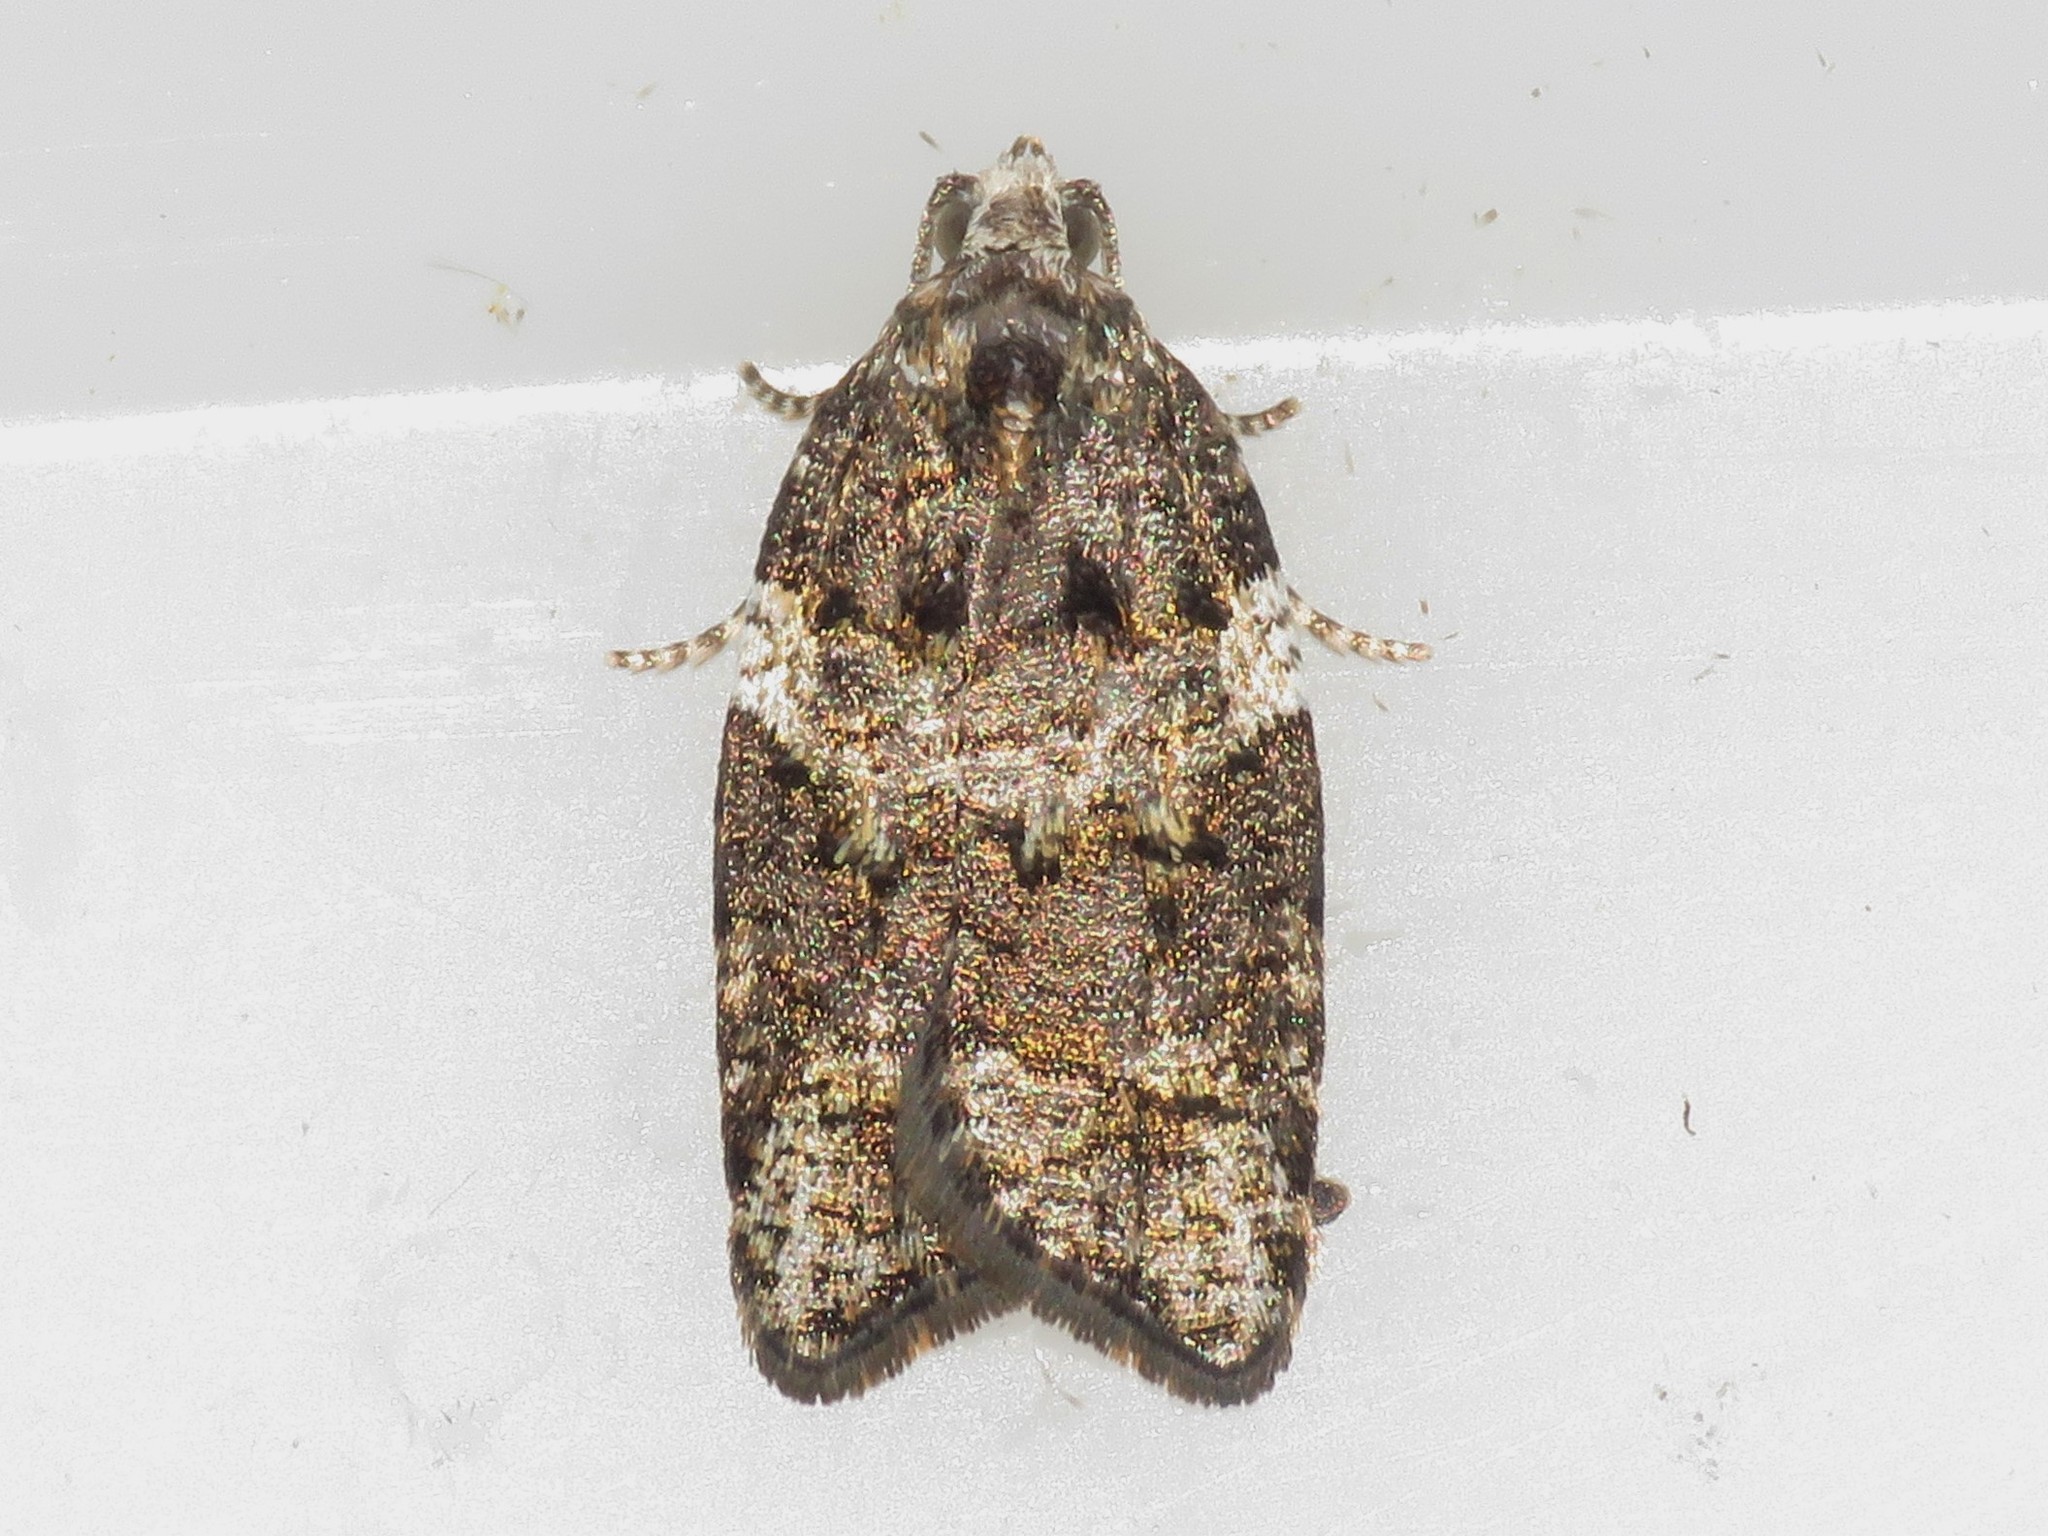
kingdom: Animalia
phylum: Arthropoda
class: Insecta
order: Lepidoptera
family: Tortricidae
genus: Acleris
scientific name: Acleris variana
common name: Eastern black-headed budworm moth
